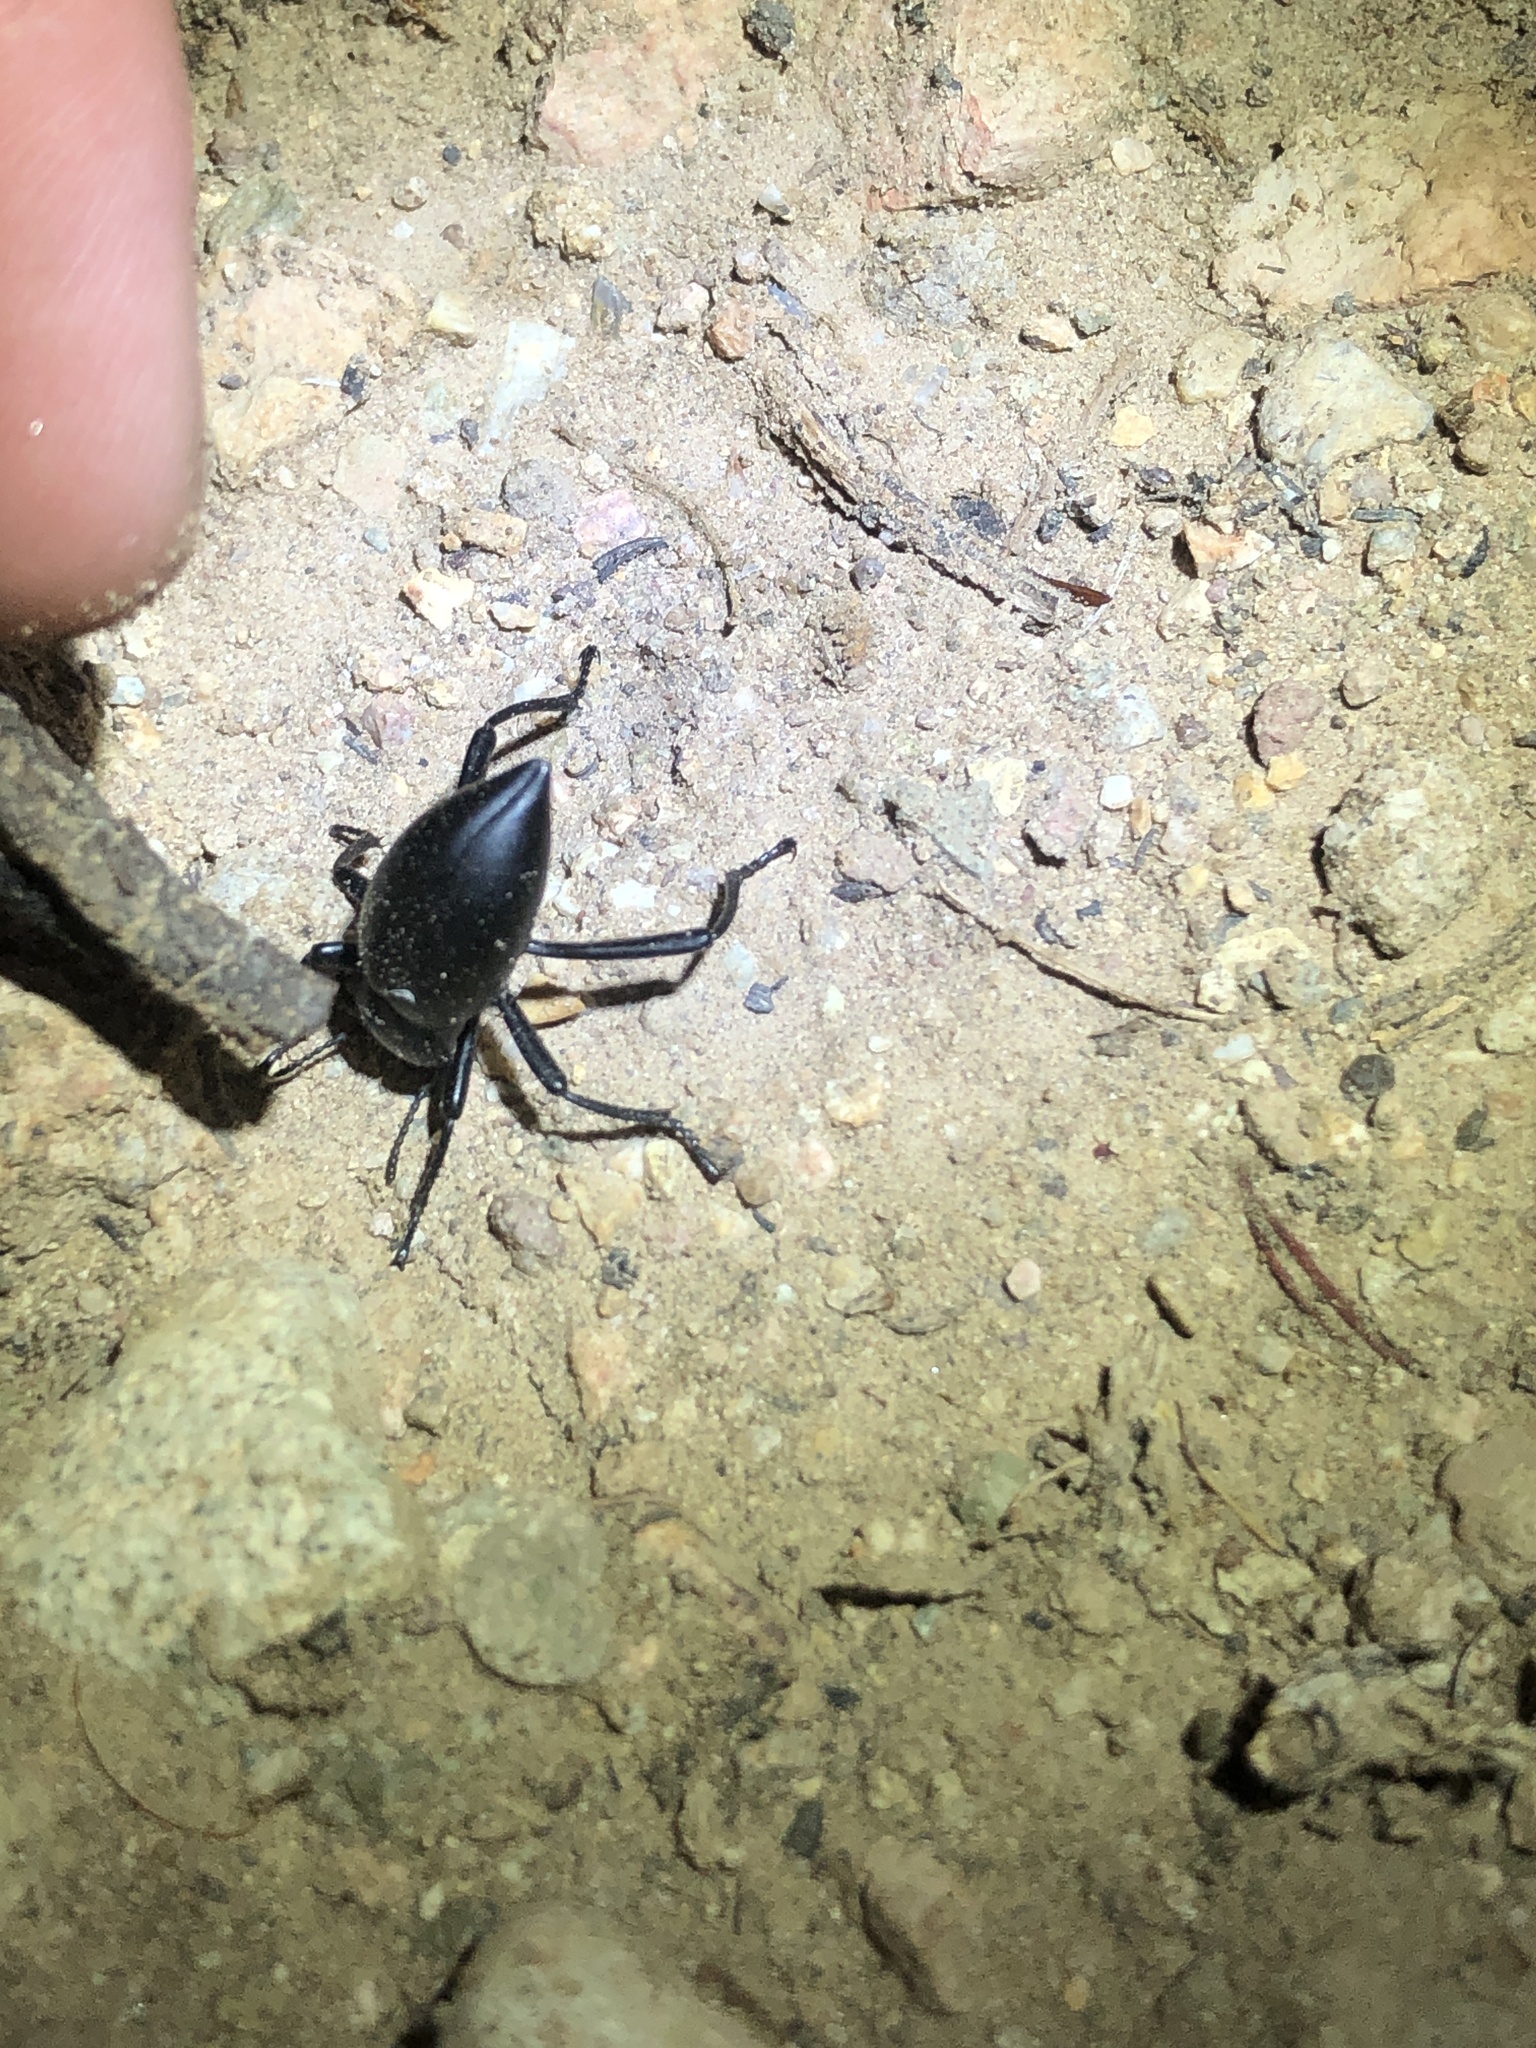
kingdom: Animalia
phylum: Arthropoda
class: Insecta
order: Coleoptera
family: Tenebrionidae
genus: Eleodes
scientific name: Eleodes acuticauda
